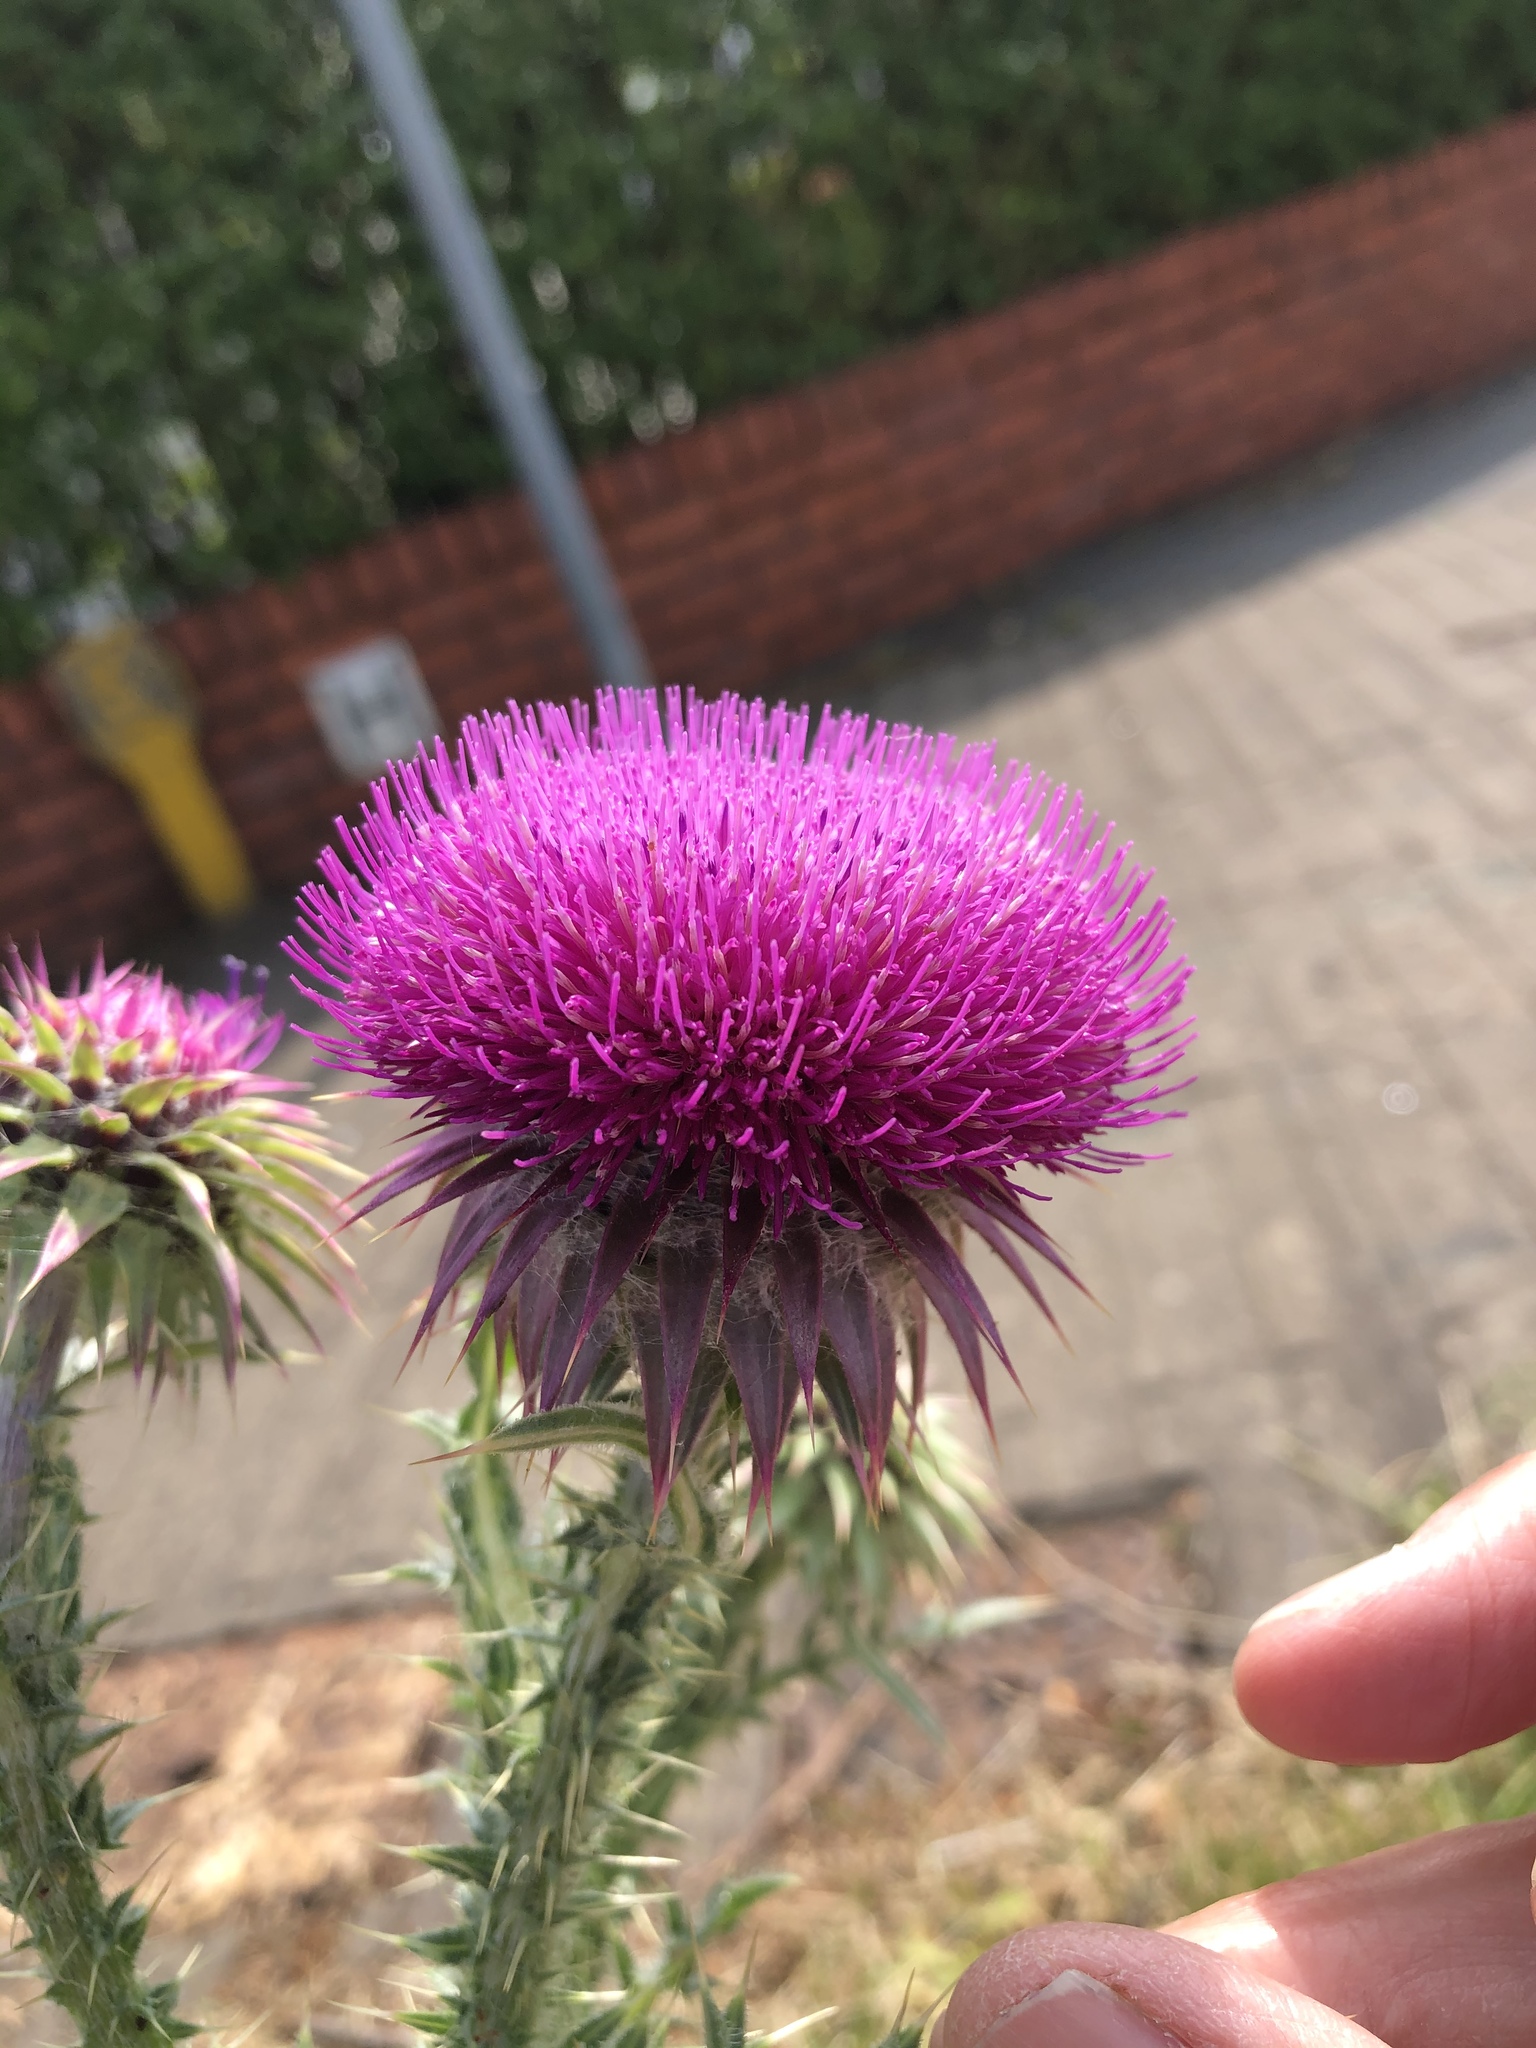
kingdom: Plantae
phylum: Tracheophyta
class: Magnoliopsida
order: Asterales
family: Asteraceae
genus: Carduus
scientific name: Carduus nutans
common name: Musk thistle
